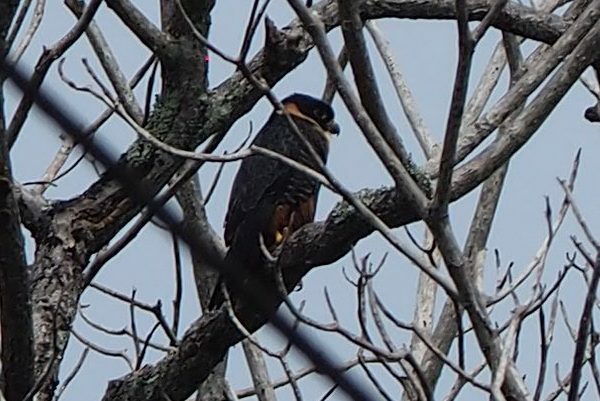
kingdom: Animalia
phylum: Chordata
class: Aves
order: Falconiformes
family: Falconidae
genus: Falco
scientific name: Falco rufigularis
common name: Bat falcon
